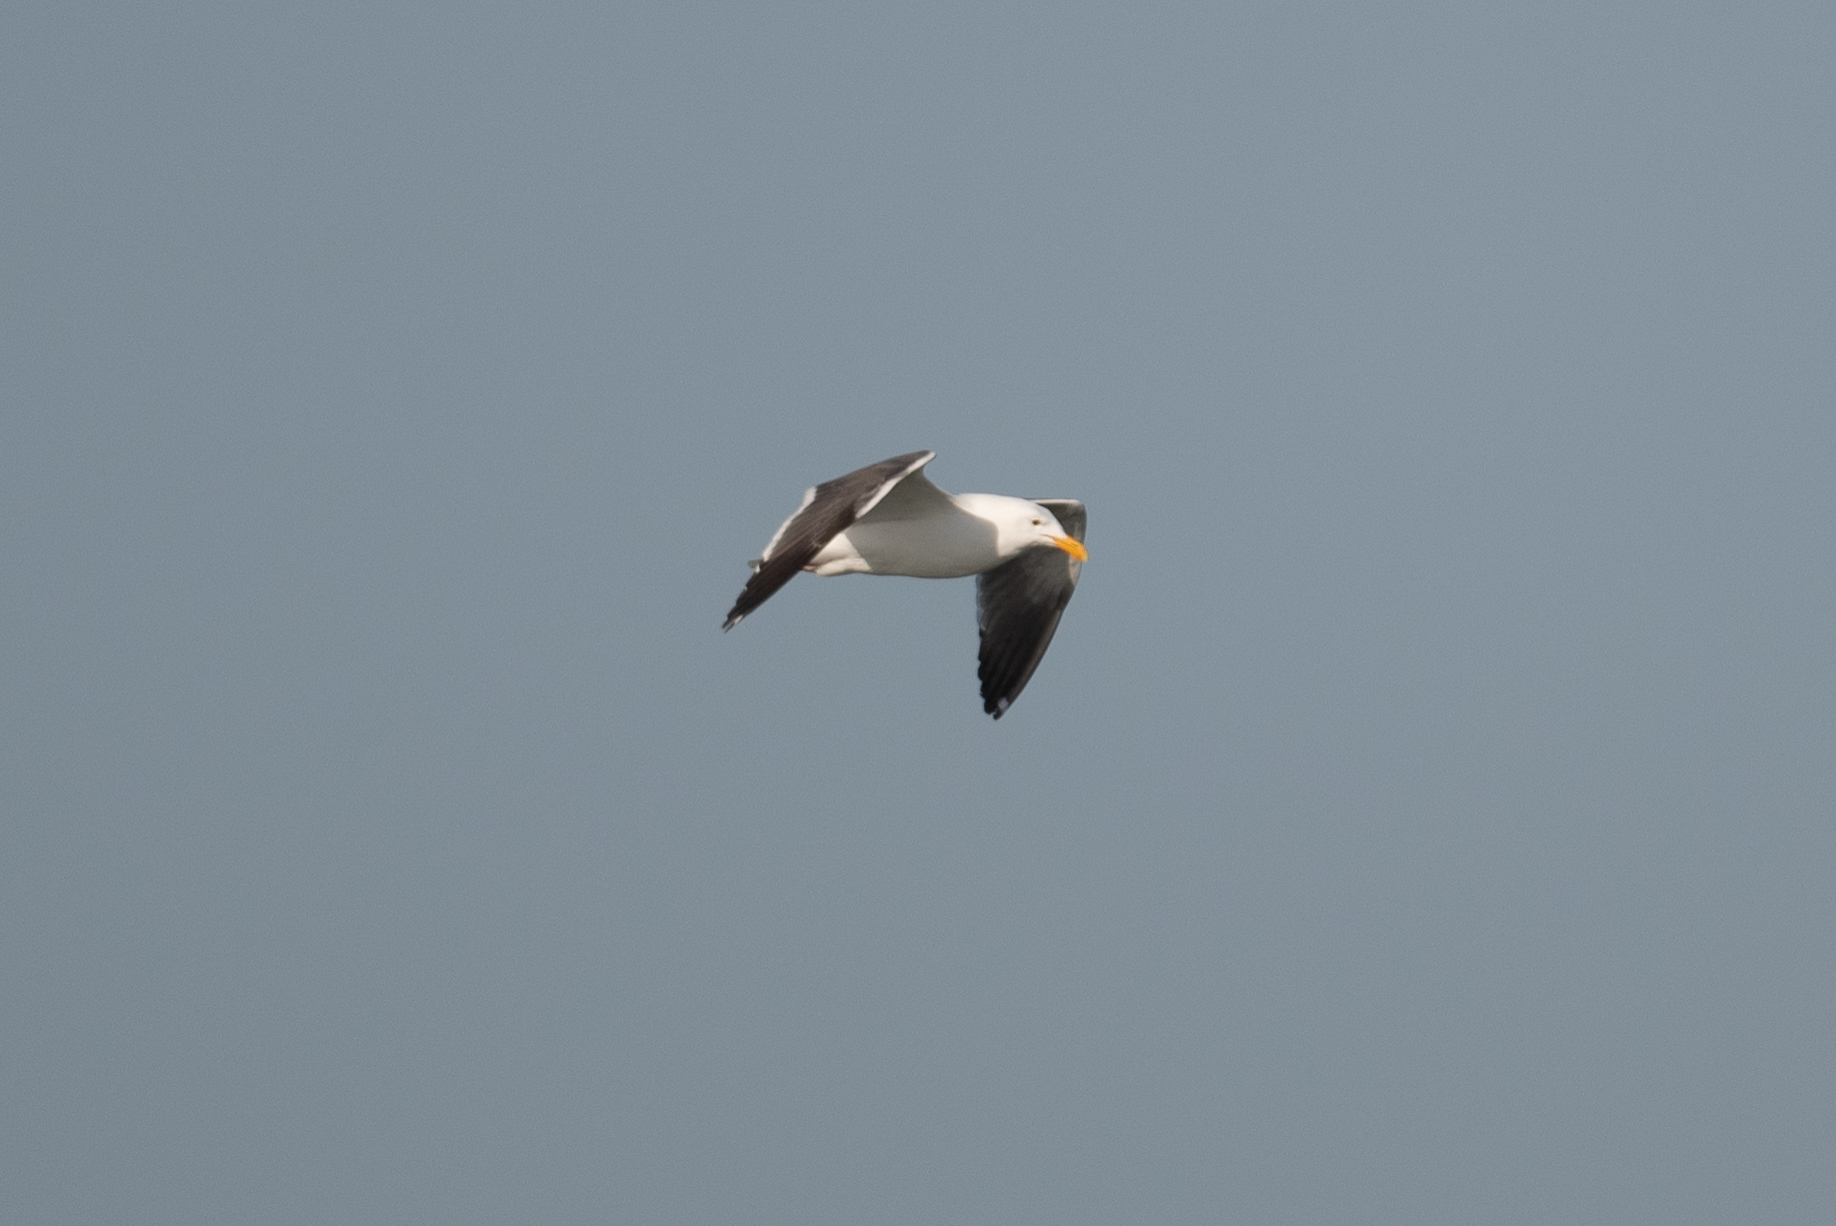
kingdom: Animalia
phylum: Chordata
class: Aves
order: Charadriiformes
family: Laridae
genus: Larus
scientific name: Larus occidentalis
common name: Western gull
